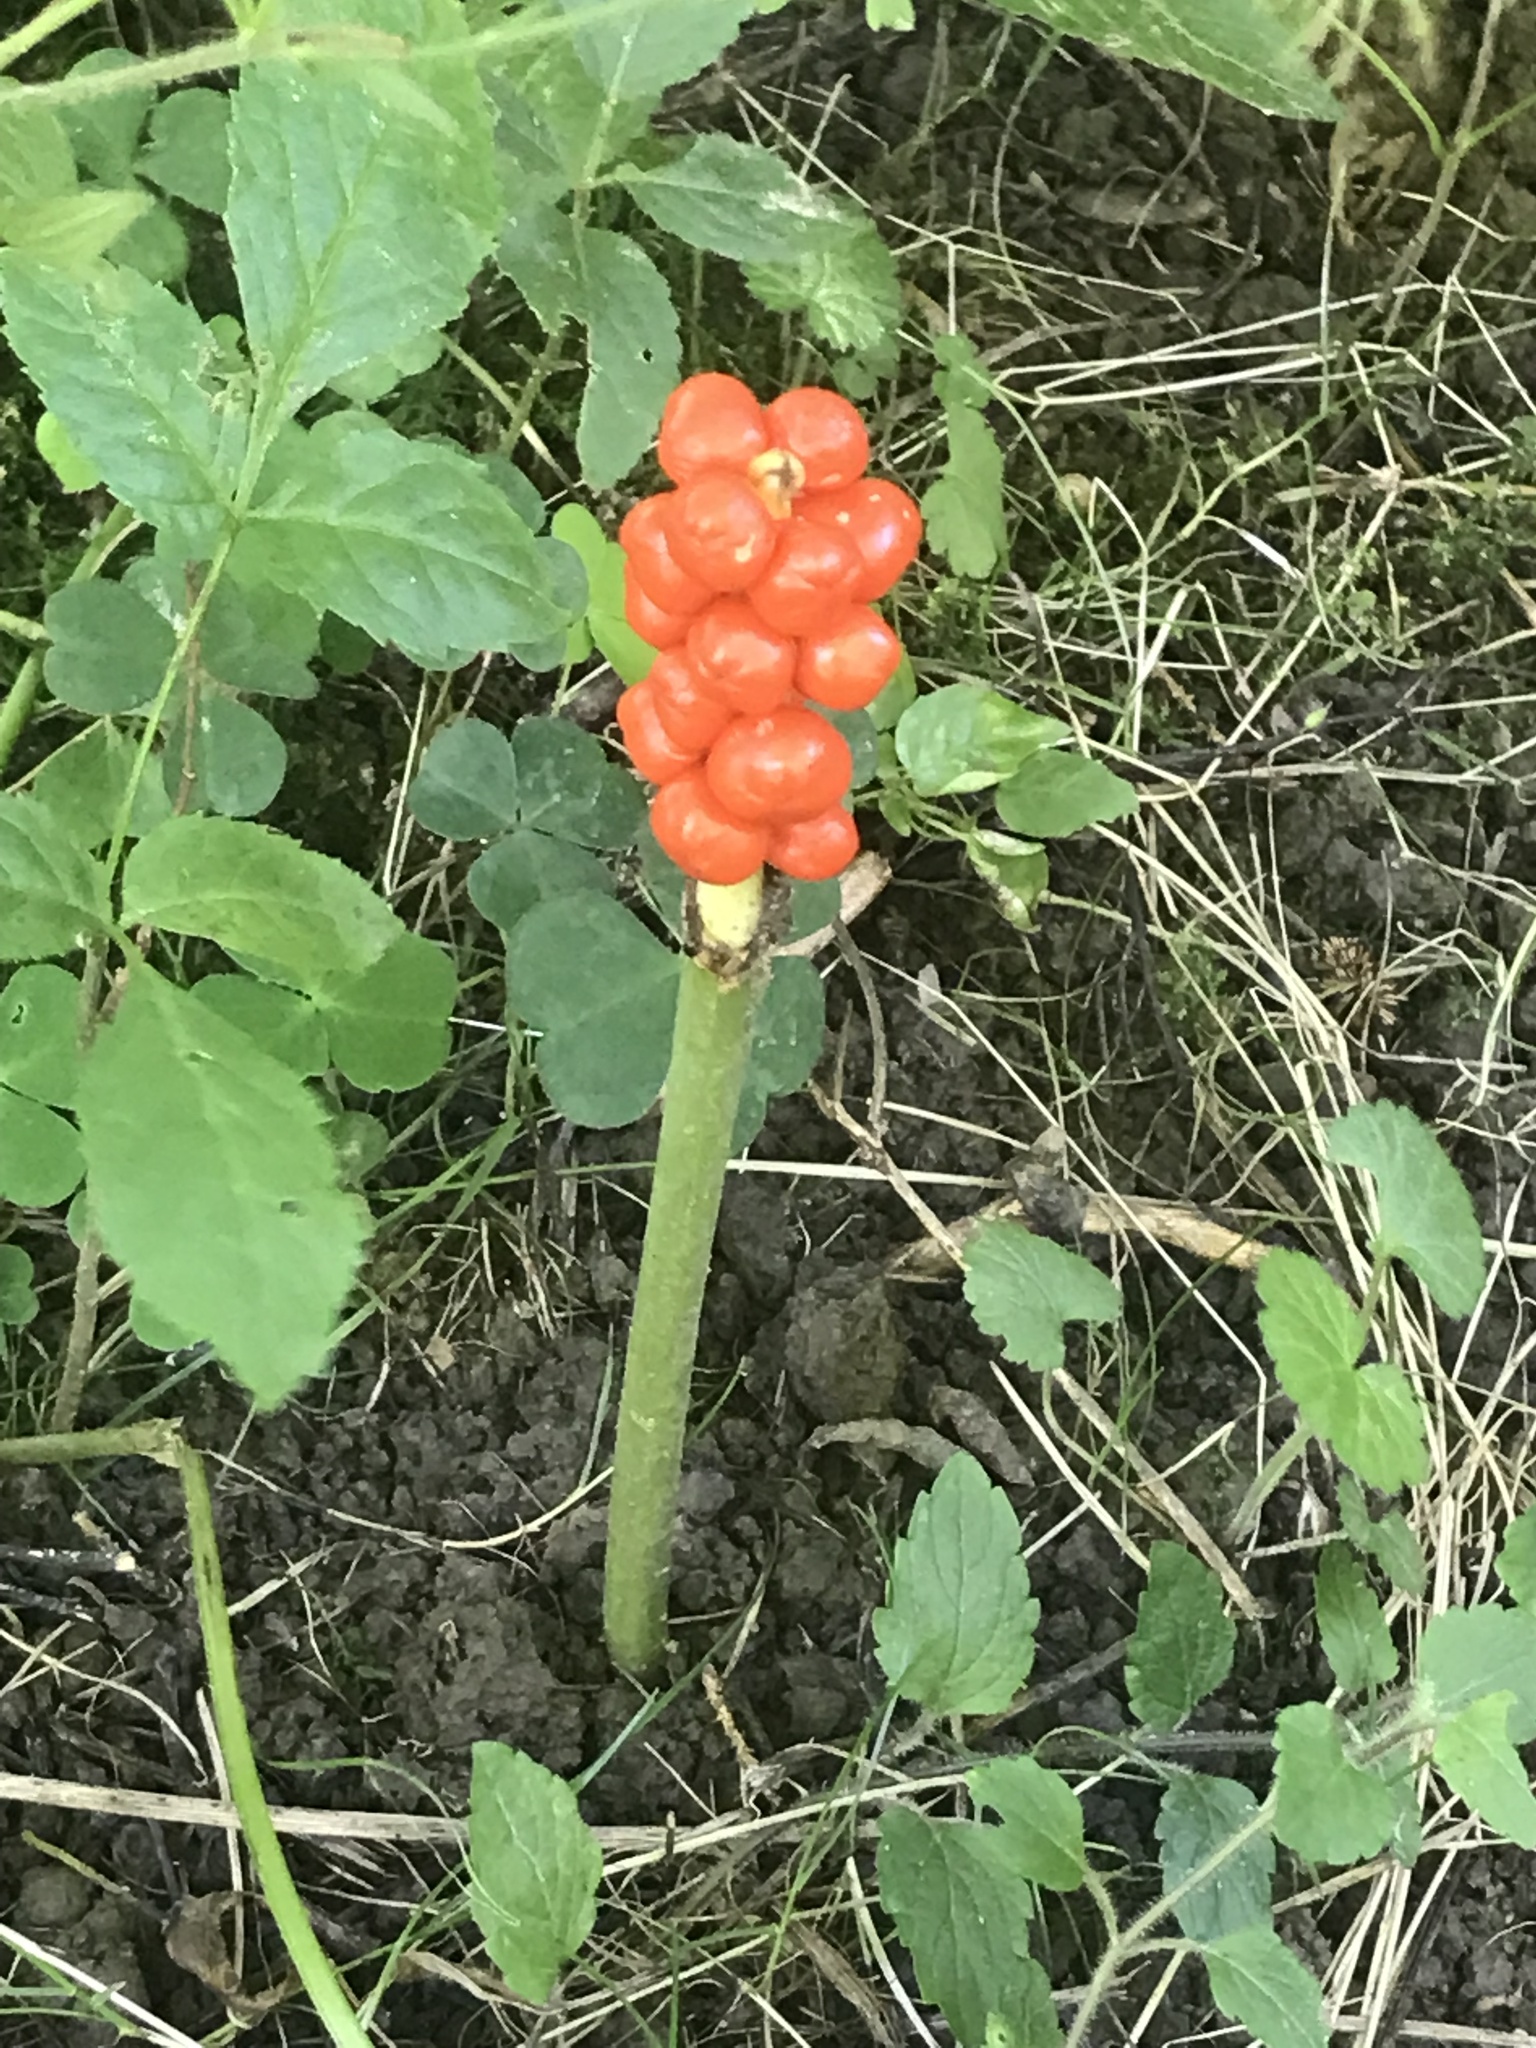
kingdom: Plantae
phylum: Tracheophyta
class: Liliopsida
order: Alismatales
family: Araceae
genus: Arum
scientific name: Arum maculatum
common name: Lords-and-ladies
